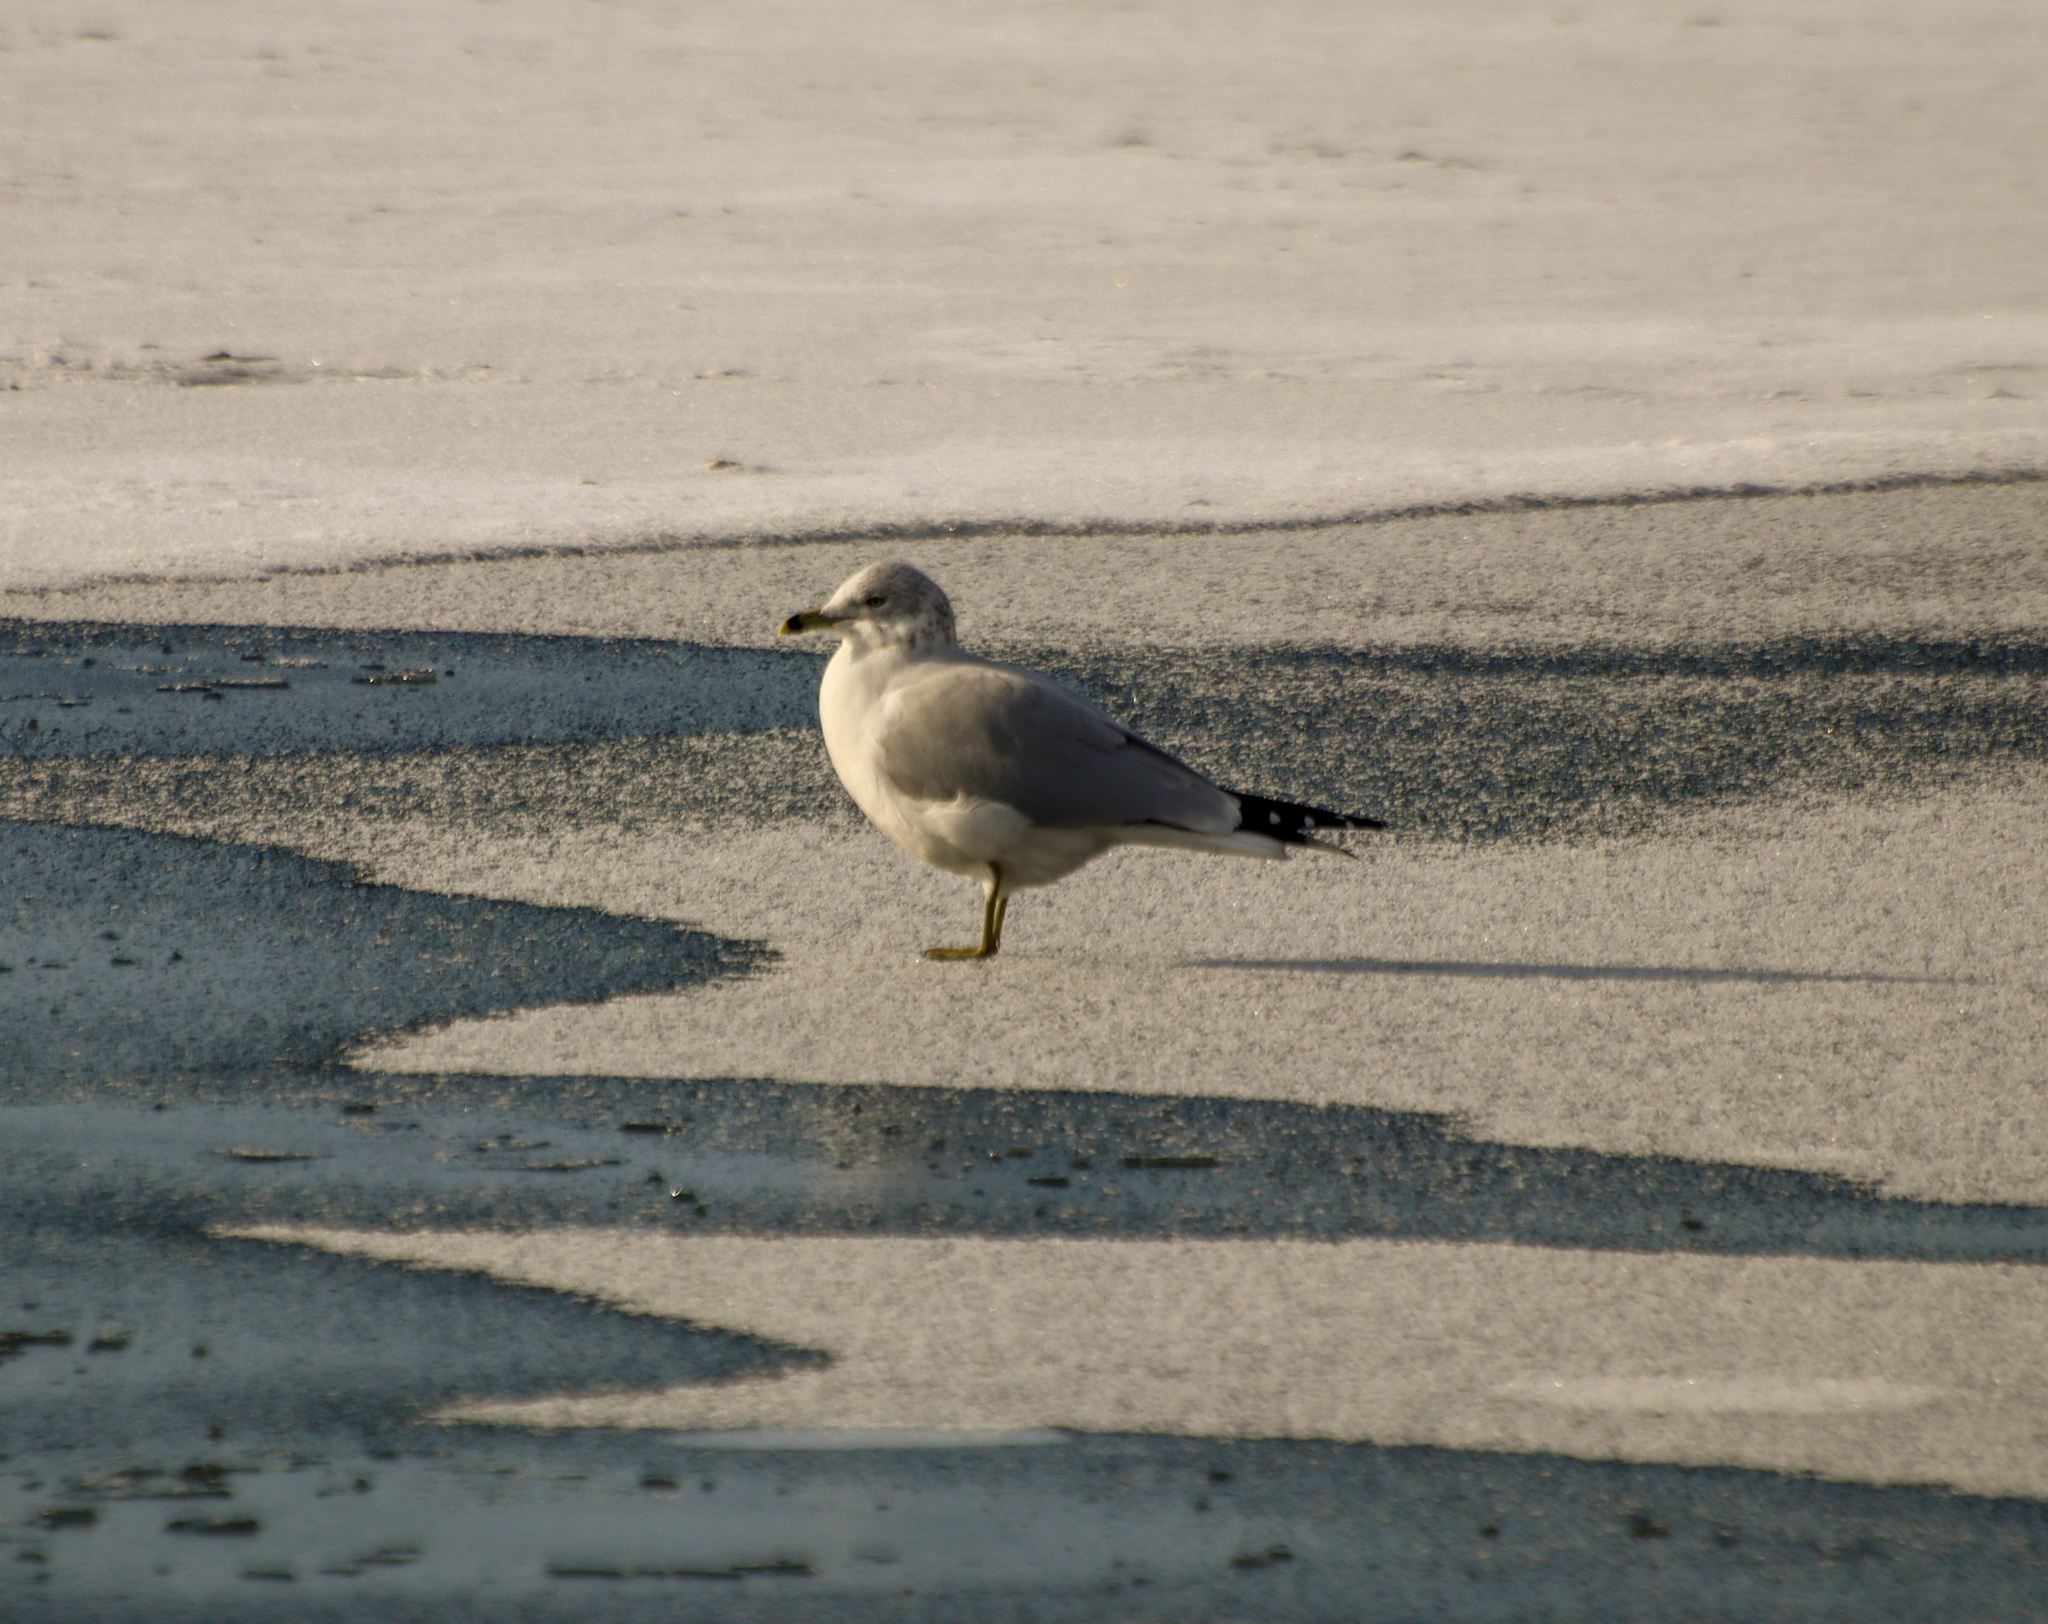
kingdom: Animalia
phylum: Chordata
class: Aves
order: Charadriiformes
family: Laridae
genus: Larus
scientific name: Larus delawarensis
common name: Ring-billed gull
